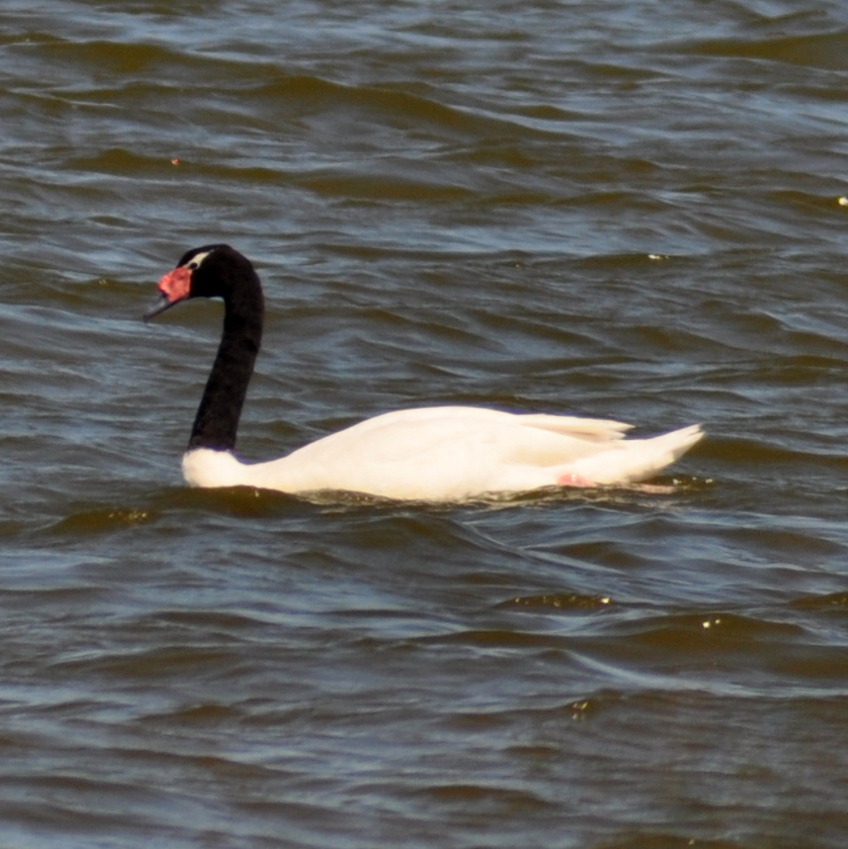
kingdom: Animalia
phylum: Chordata
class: Aves
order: Anseriformes
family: Anatidae
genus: Cygnus
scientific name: Cygnus melancoryphus
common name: Black-necked swan
